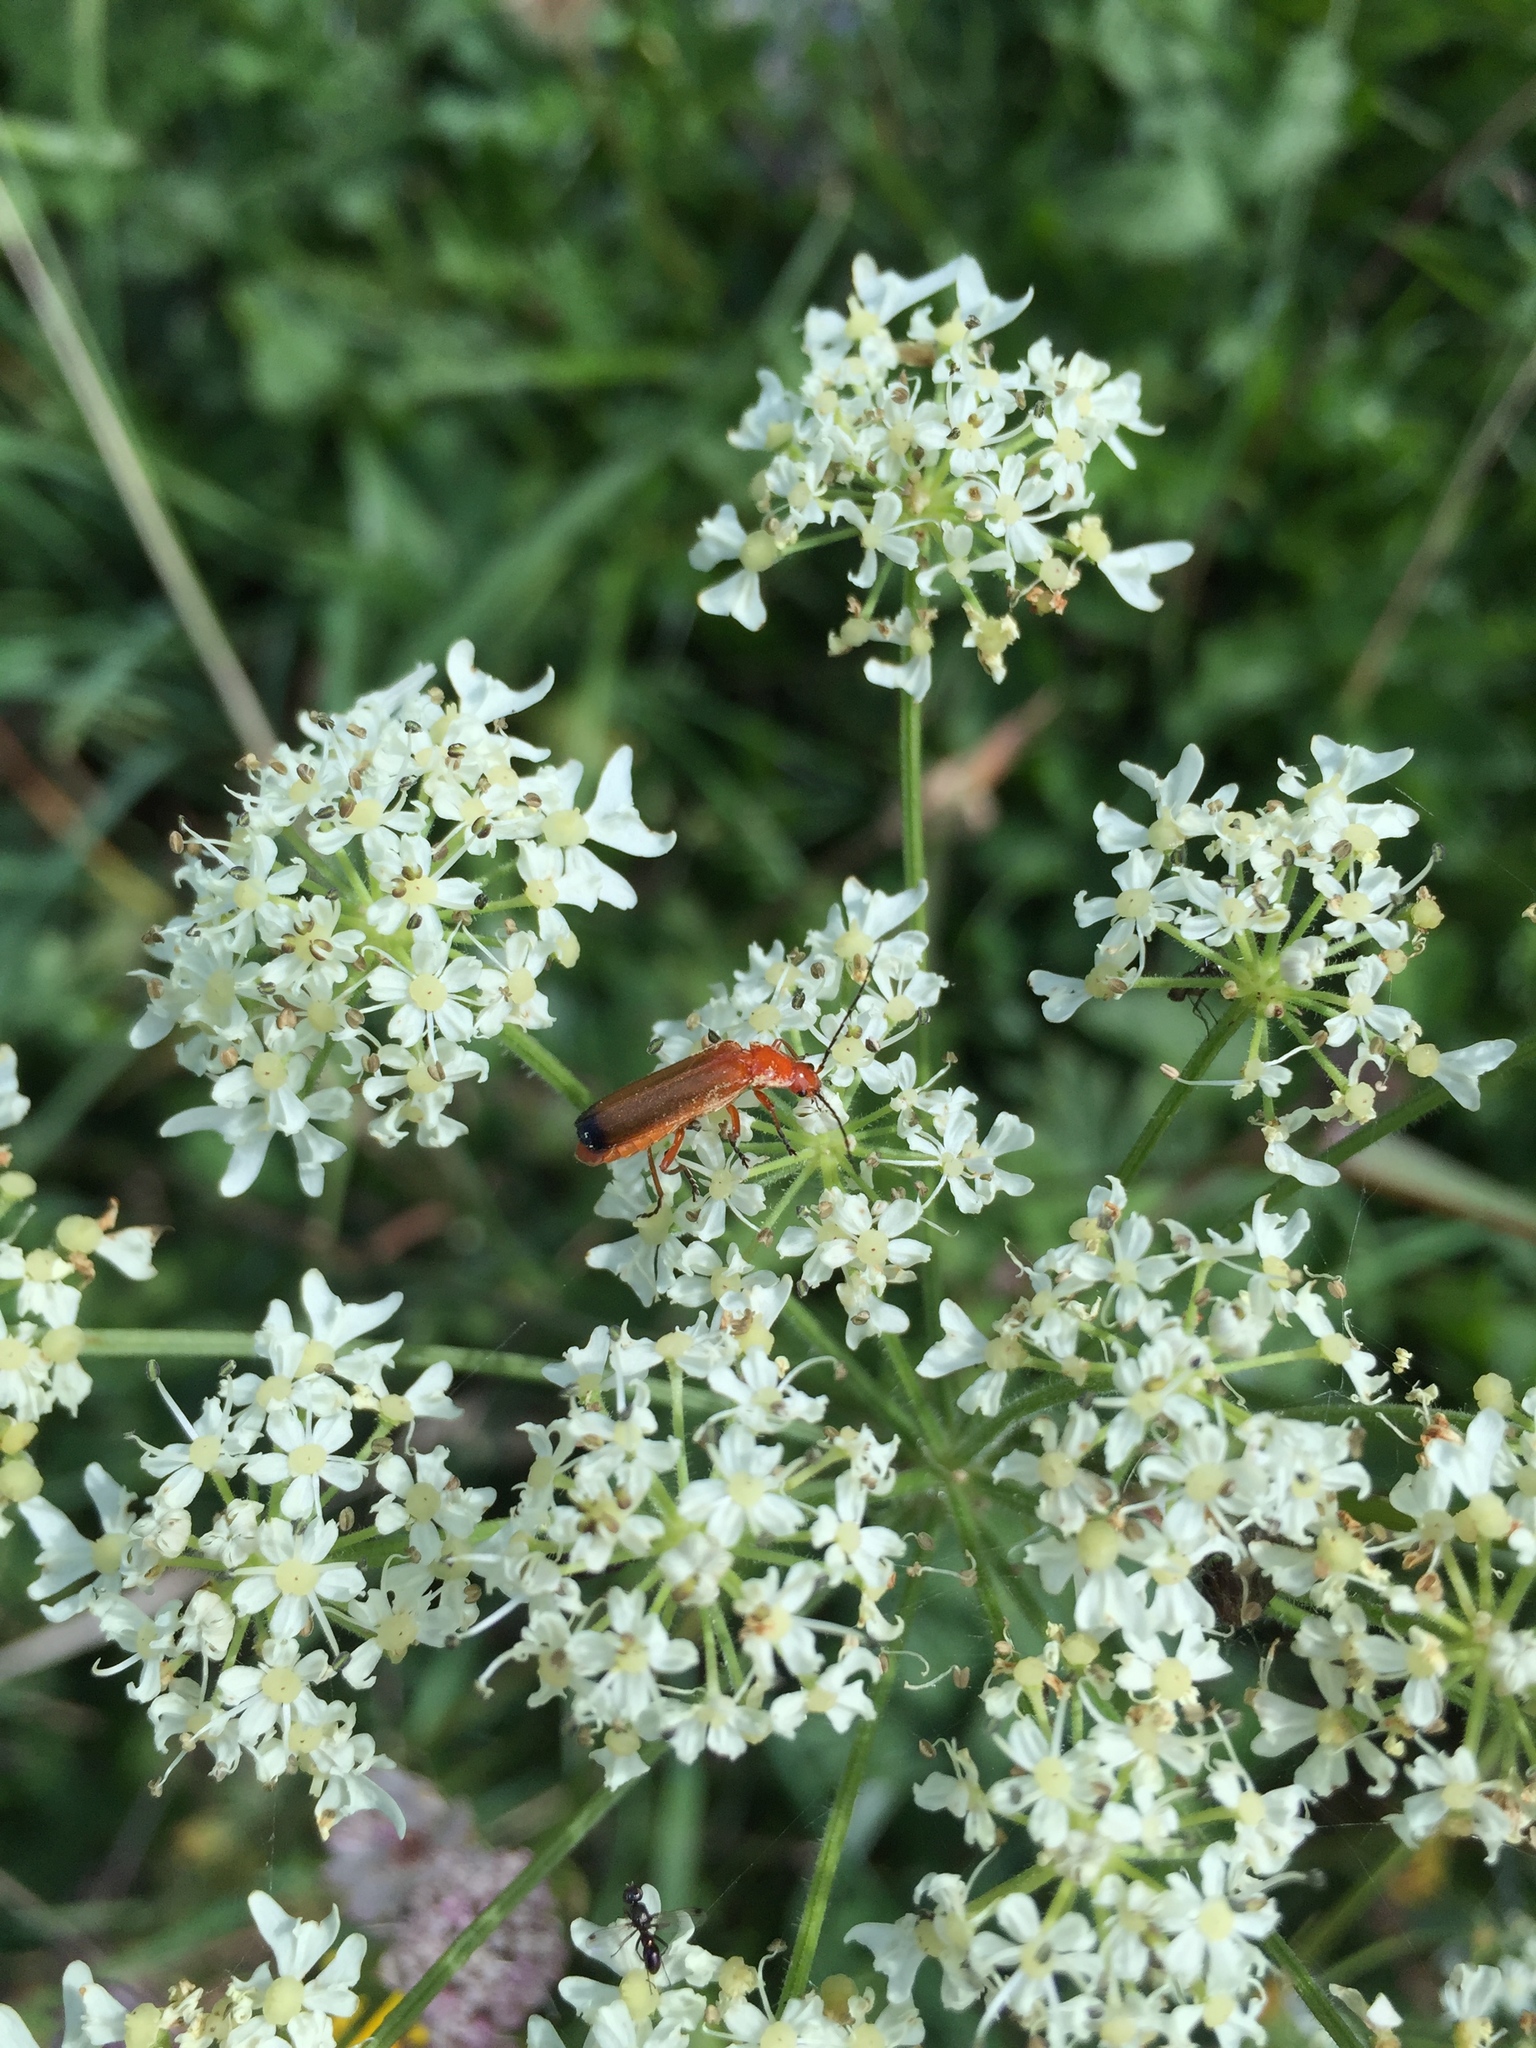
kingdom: Animalia
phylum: Arthropoda
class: Insecta
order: Coleoptera
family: Cantharidae
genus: Rhagonycha
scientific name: Rhagonycha fulva
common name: Common red soldier beetle
